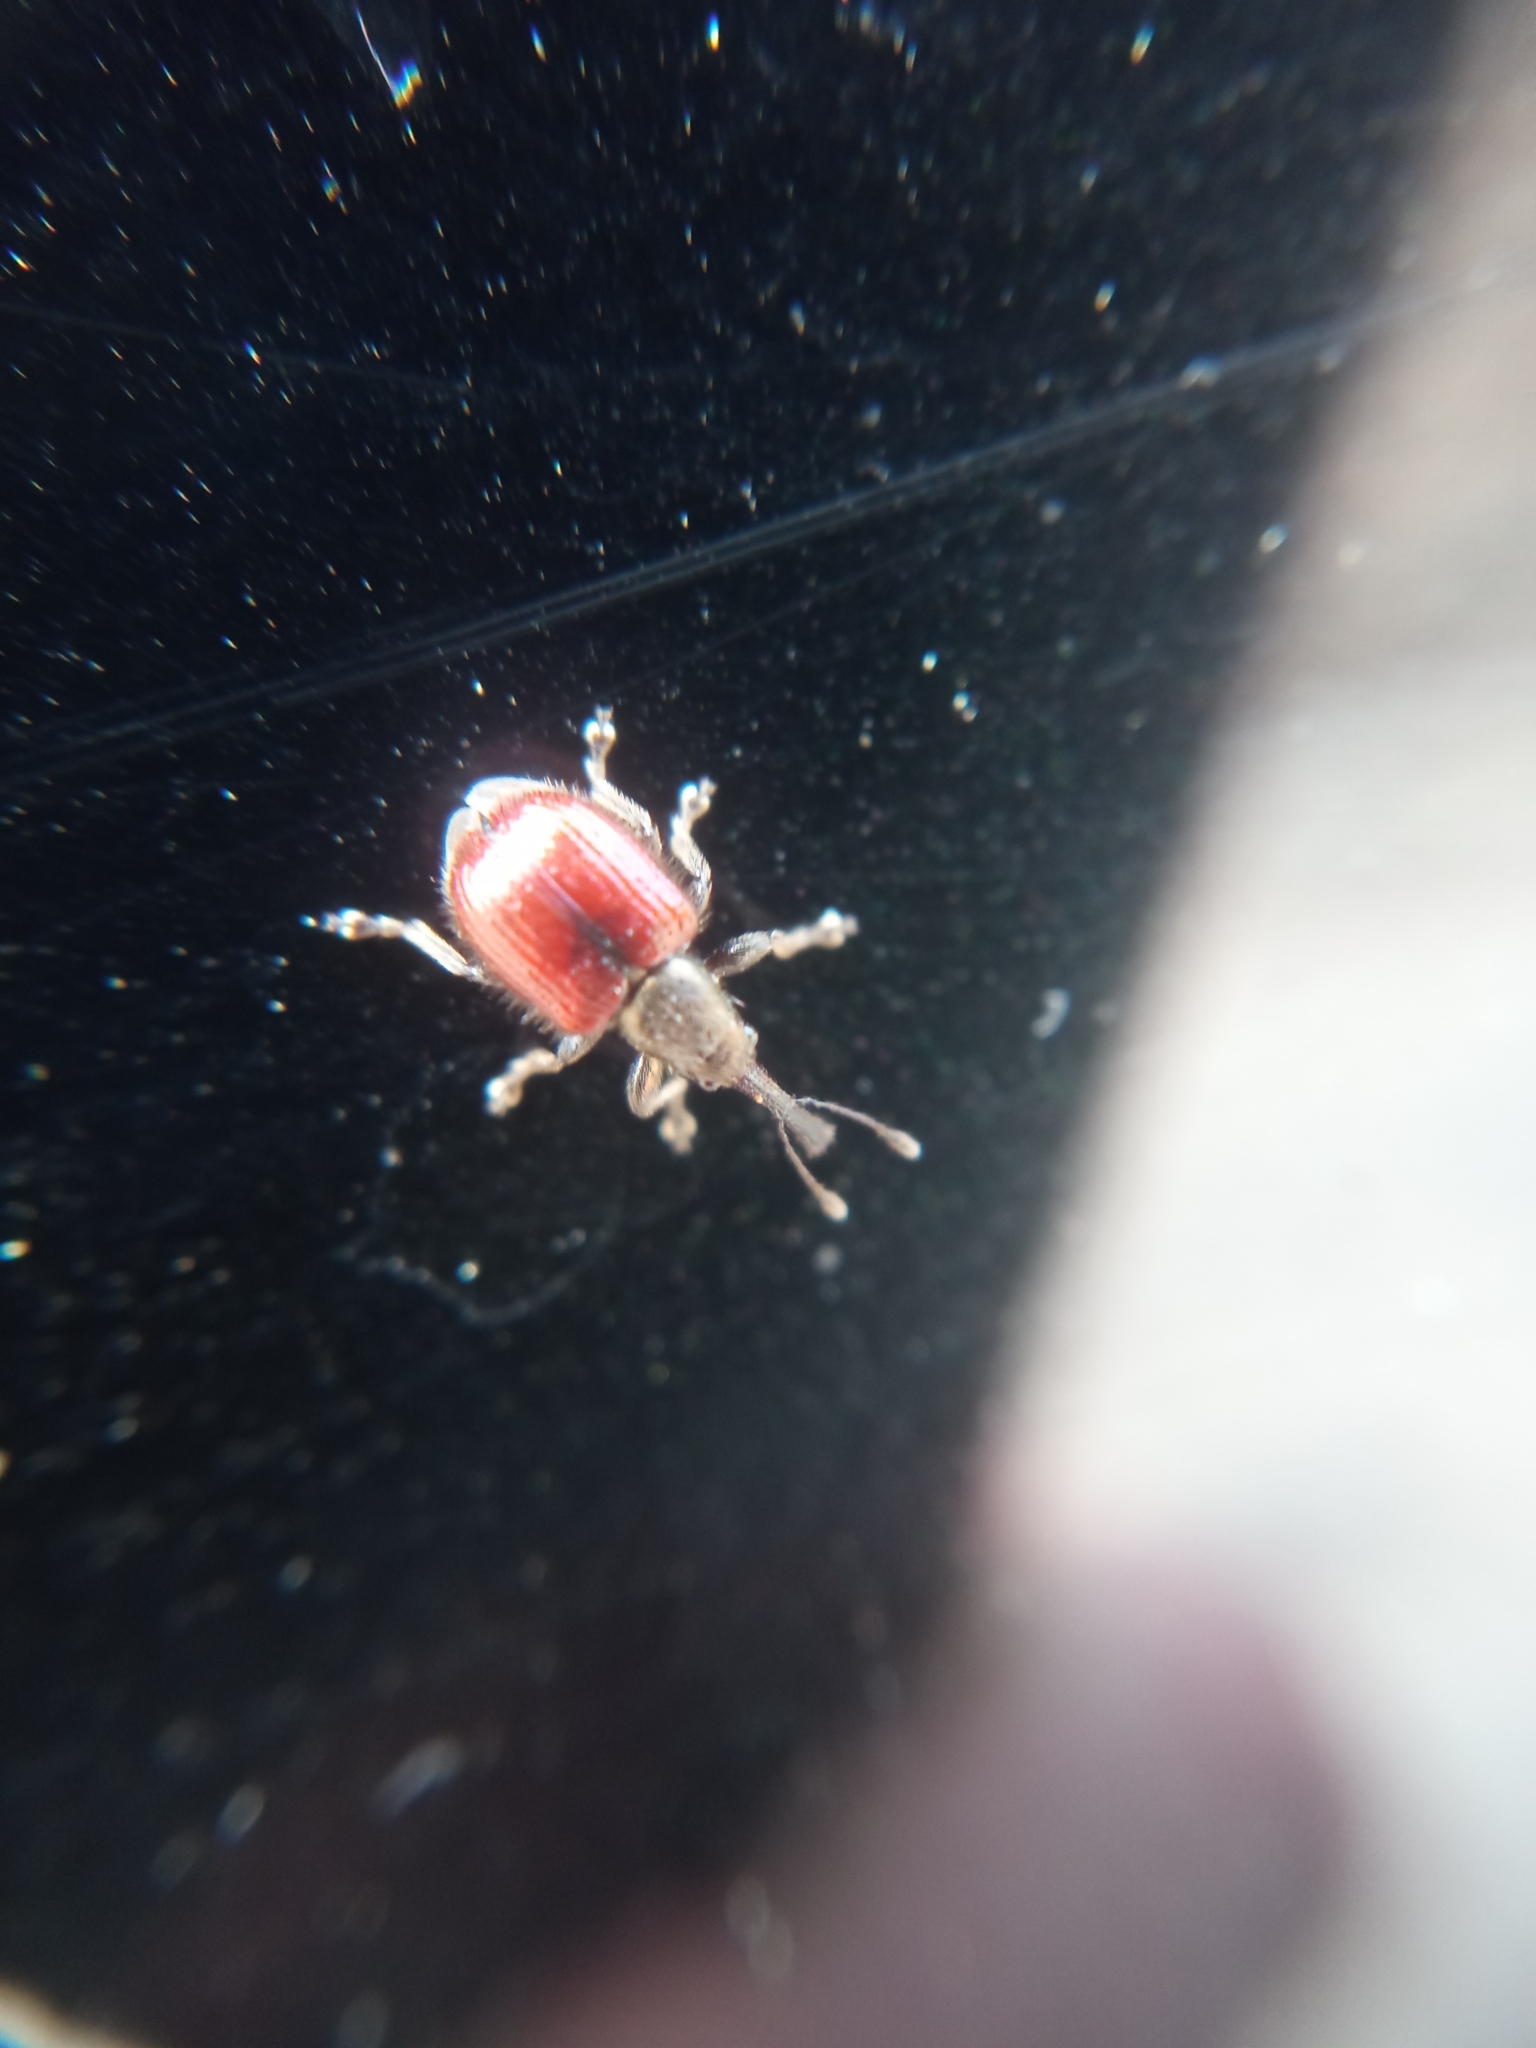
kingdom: Animalia
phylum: Arthropoda
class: Insecta
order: Coleoptera
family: Rhynchitidae
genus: Tatianaerhynchites
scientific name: Tatianaerhynchites aequatus
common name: Apple fruit rhynchites
